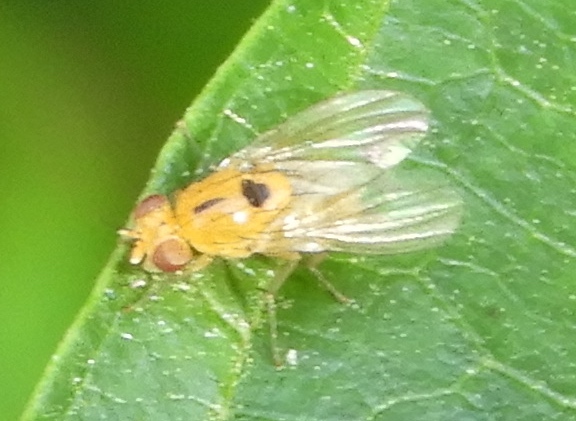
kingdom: Animalia
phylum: Arthropoda
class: Insecta
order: Diptera
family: Lauxaniidae
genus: Neogriphoneura
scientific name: Neogriphoneura timida
